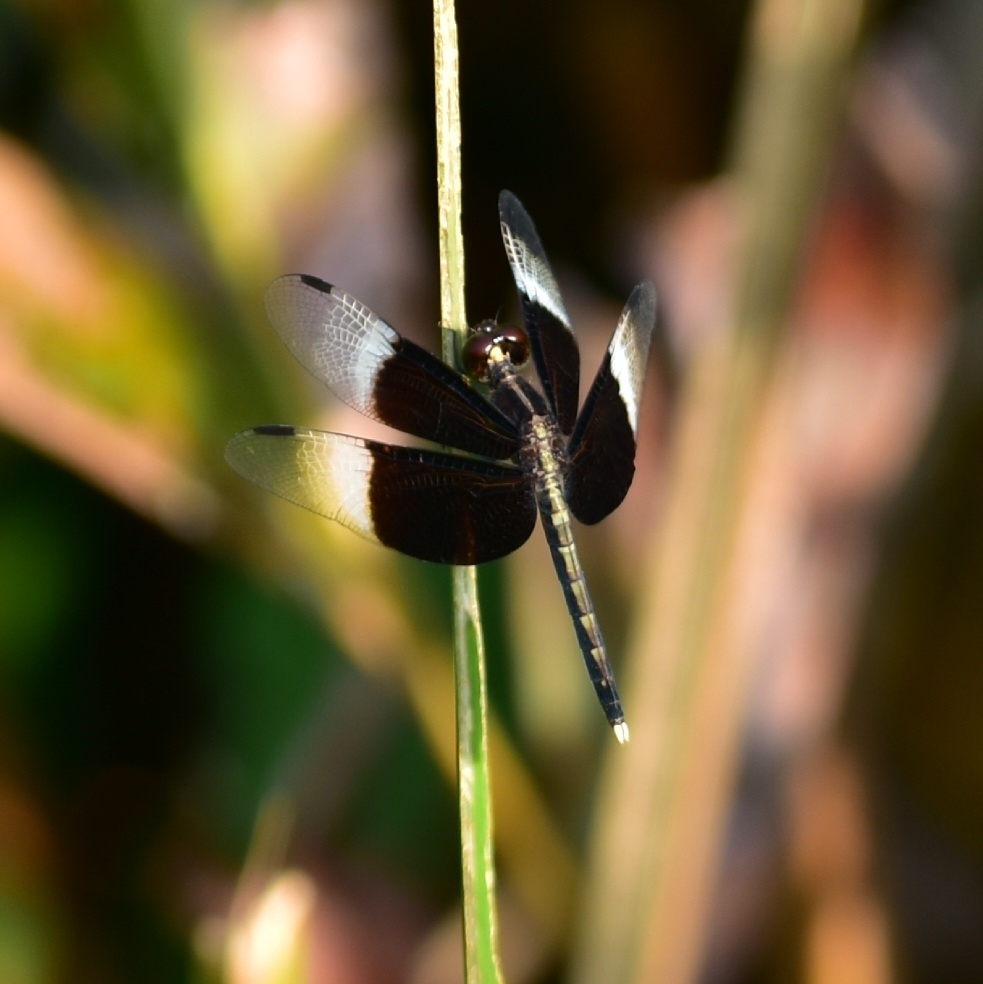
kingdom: Animalia
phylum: Arthropoda
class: Insecta
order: Odonata
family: Libellulidae
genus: Neurothemis
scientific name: Neurothemis tullia
